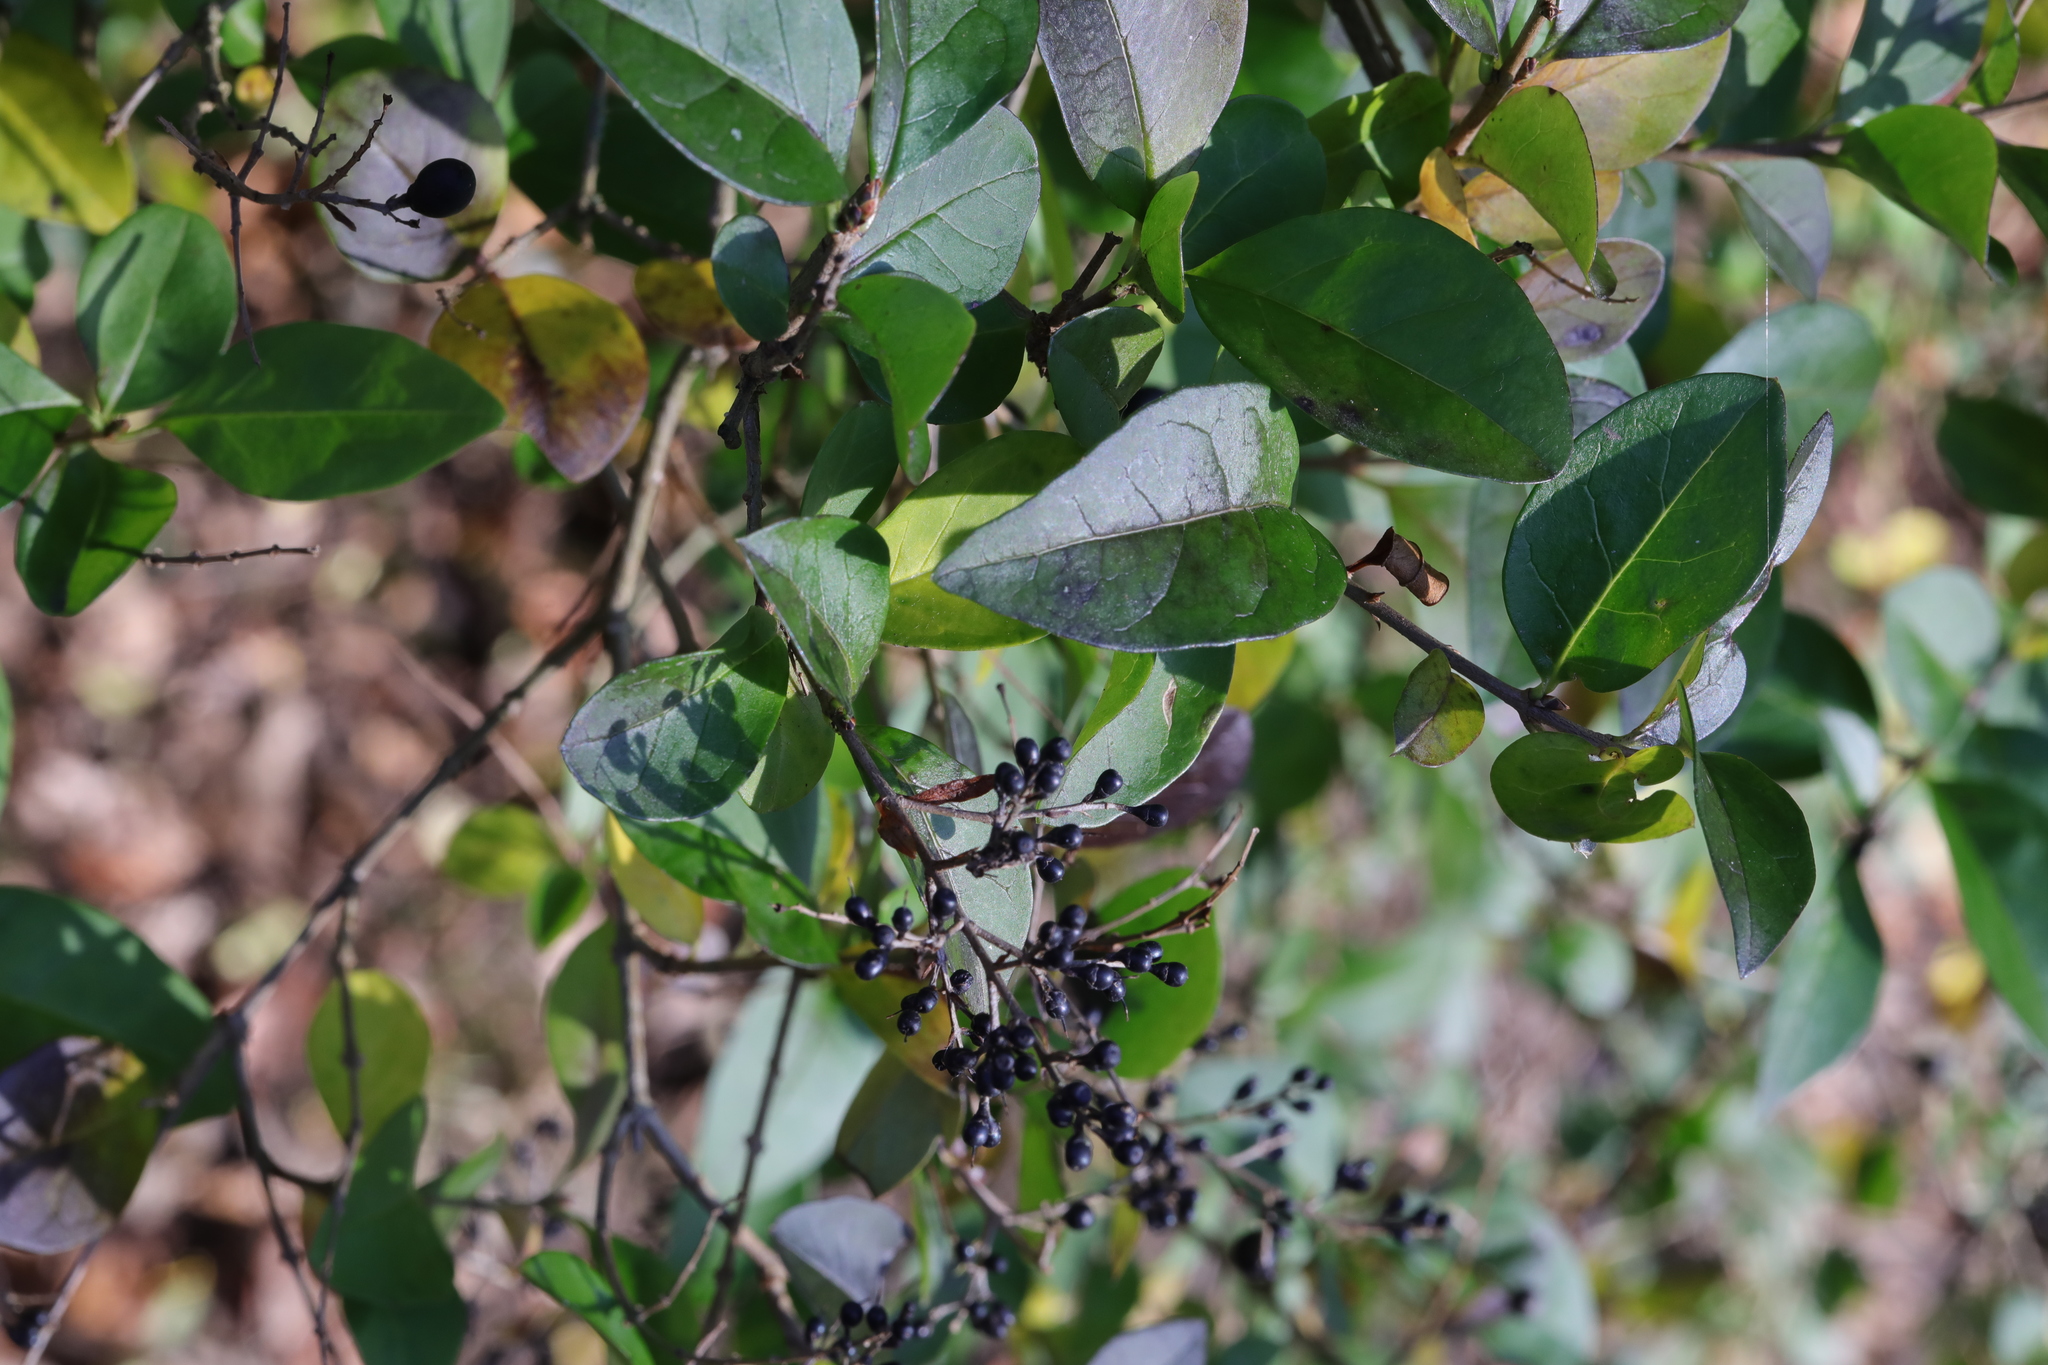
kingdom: Plantae
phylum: Tracheophyta
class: Magnoliopsida
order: Lamiales
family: Oleaceae
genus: Ligustrum
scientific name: Ligustrum ovalifolium
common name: California privet
